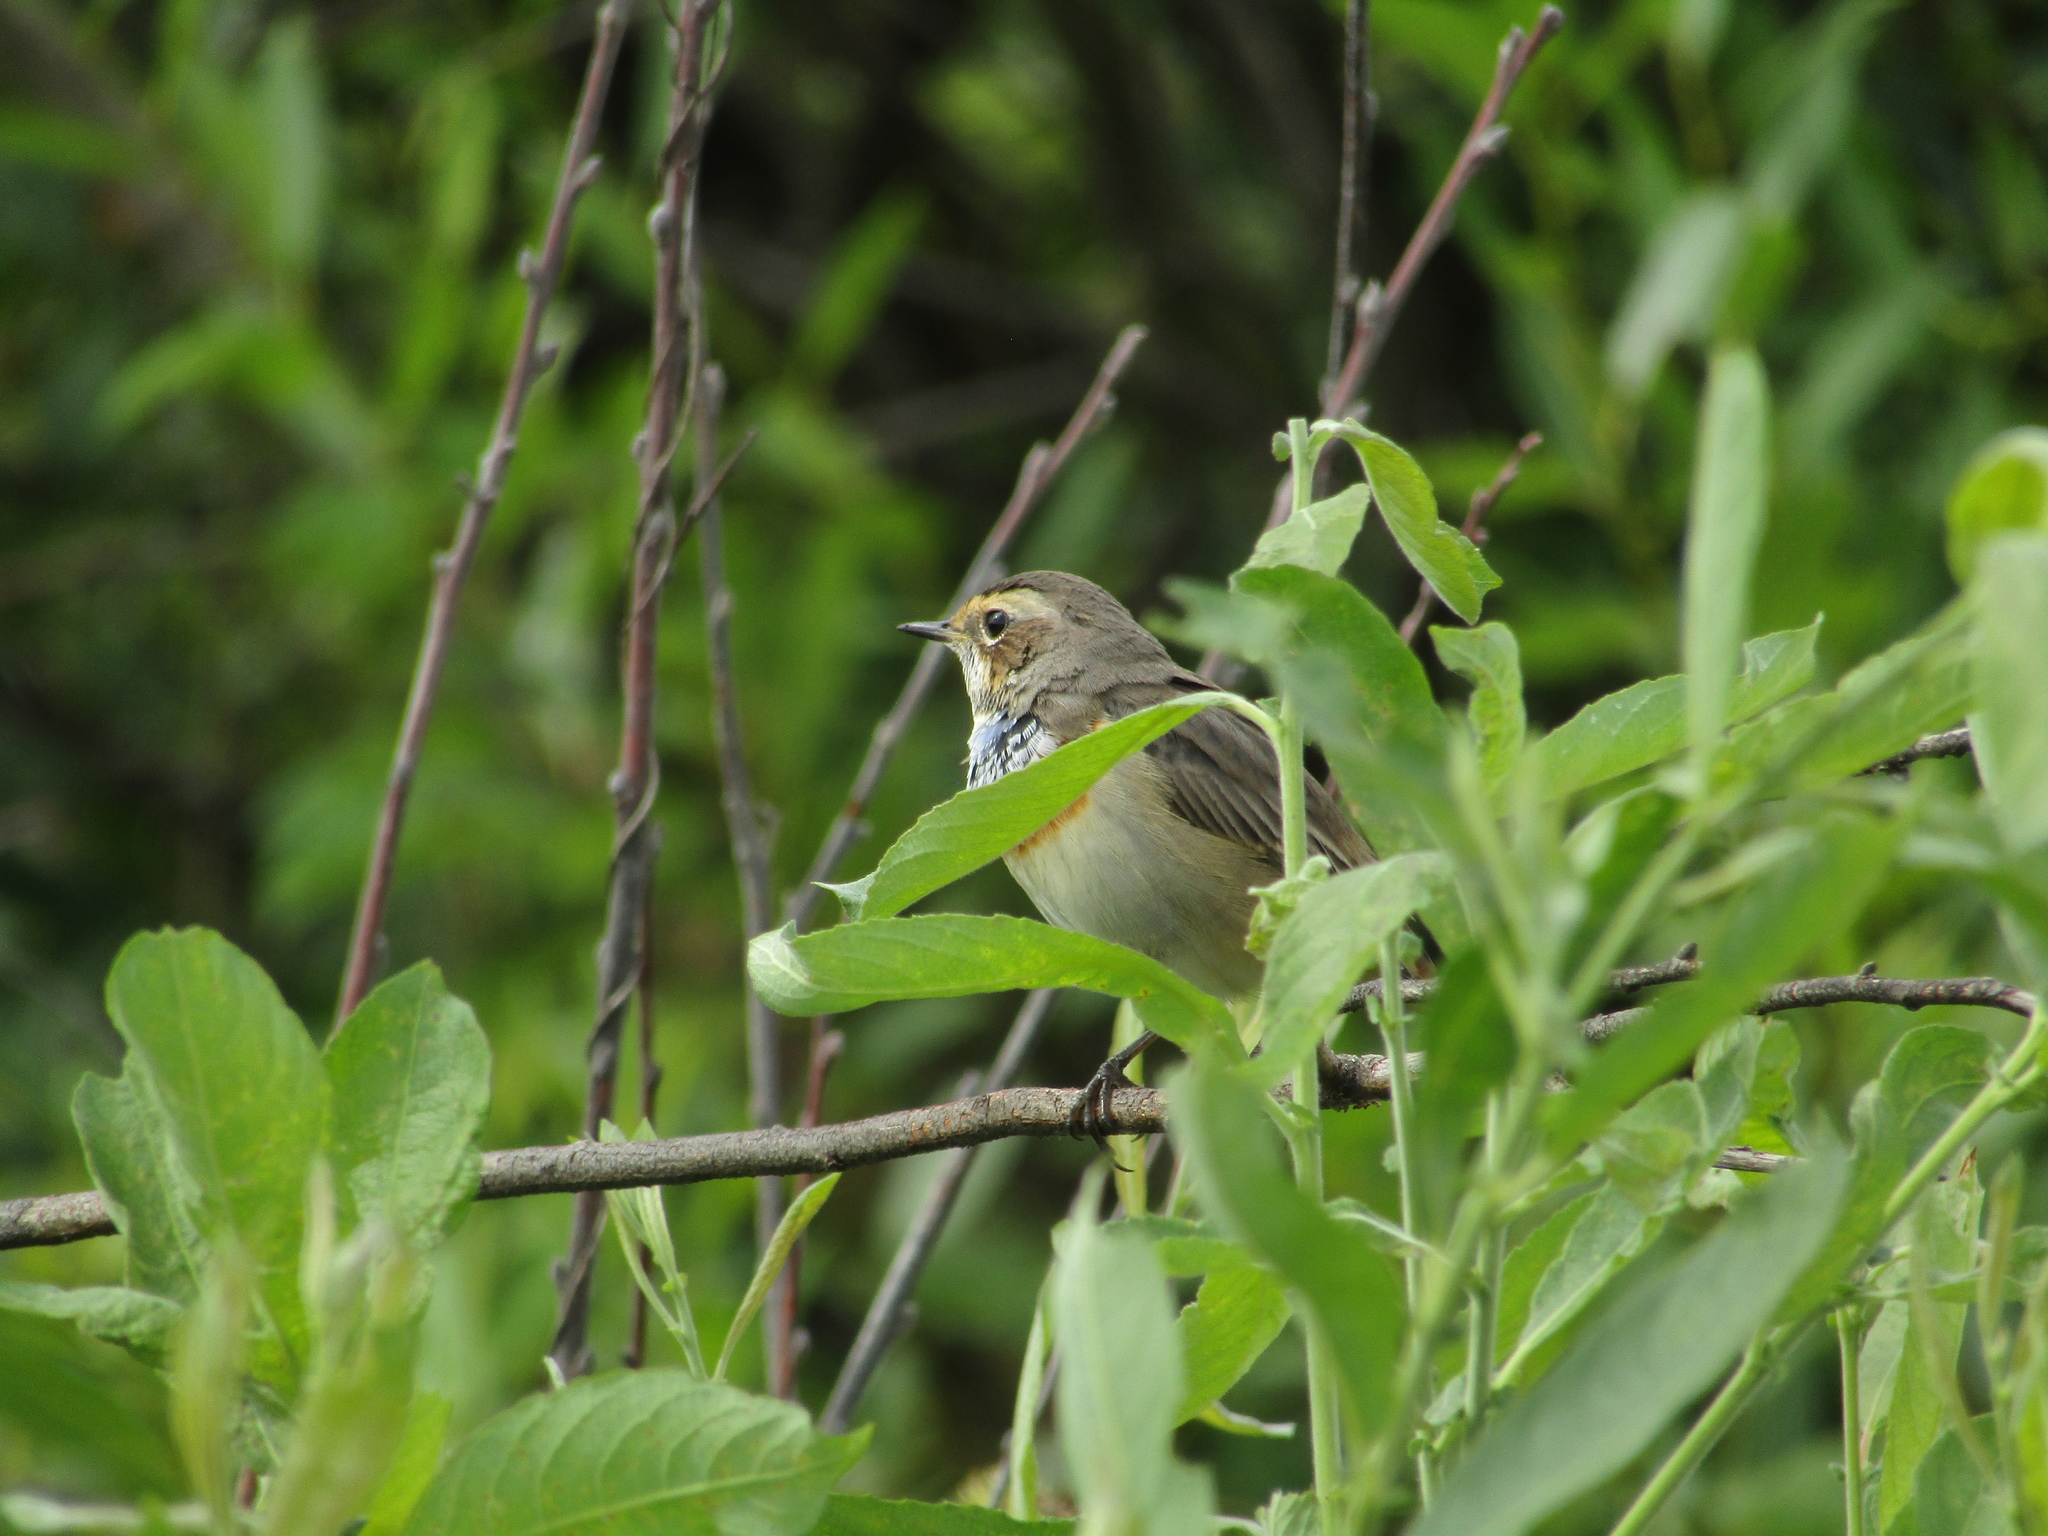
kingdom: Animalia
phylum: Chordata
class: Aves
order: Passeriformes
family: Muscicapidae
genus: Luscinia
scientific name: Luscinia svecica
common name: Bluethroat
